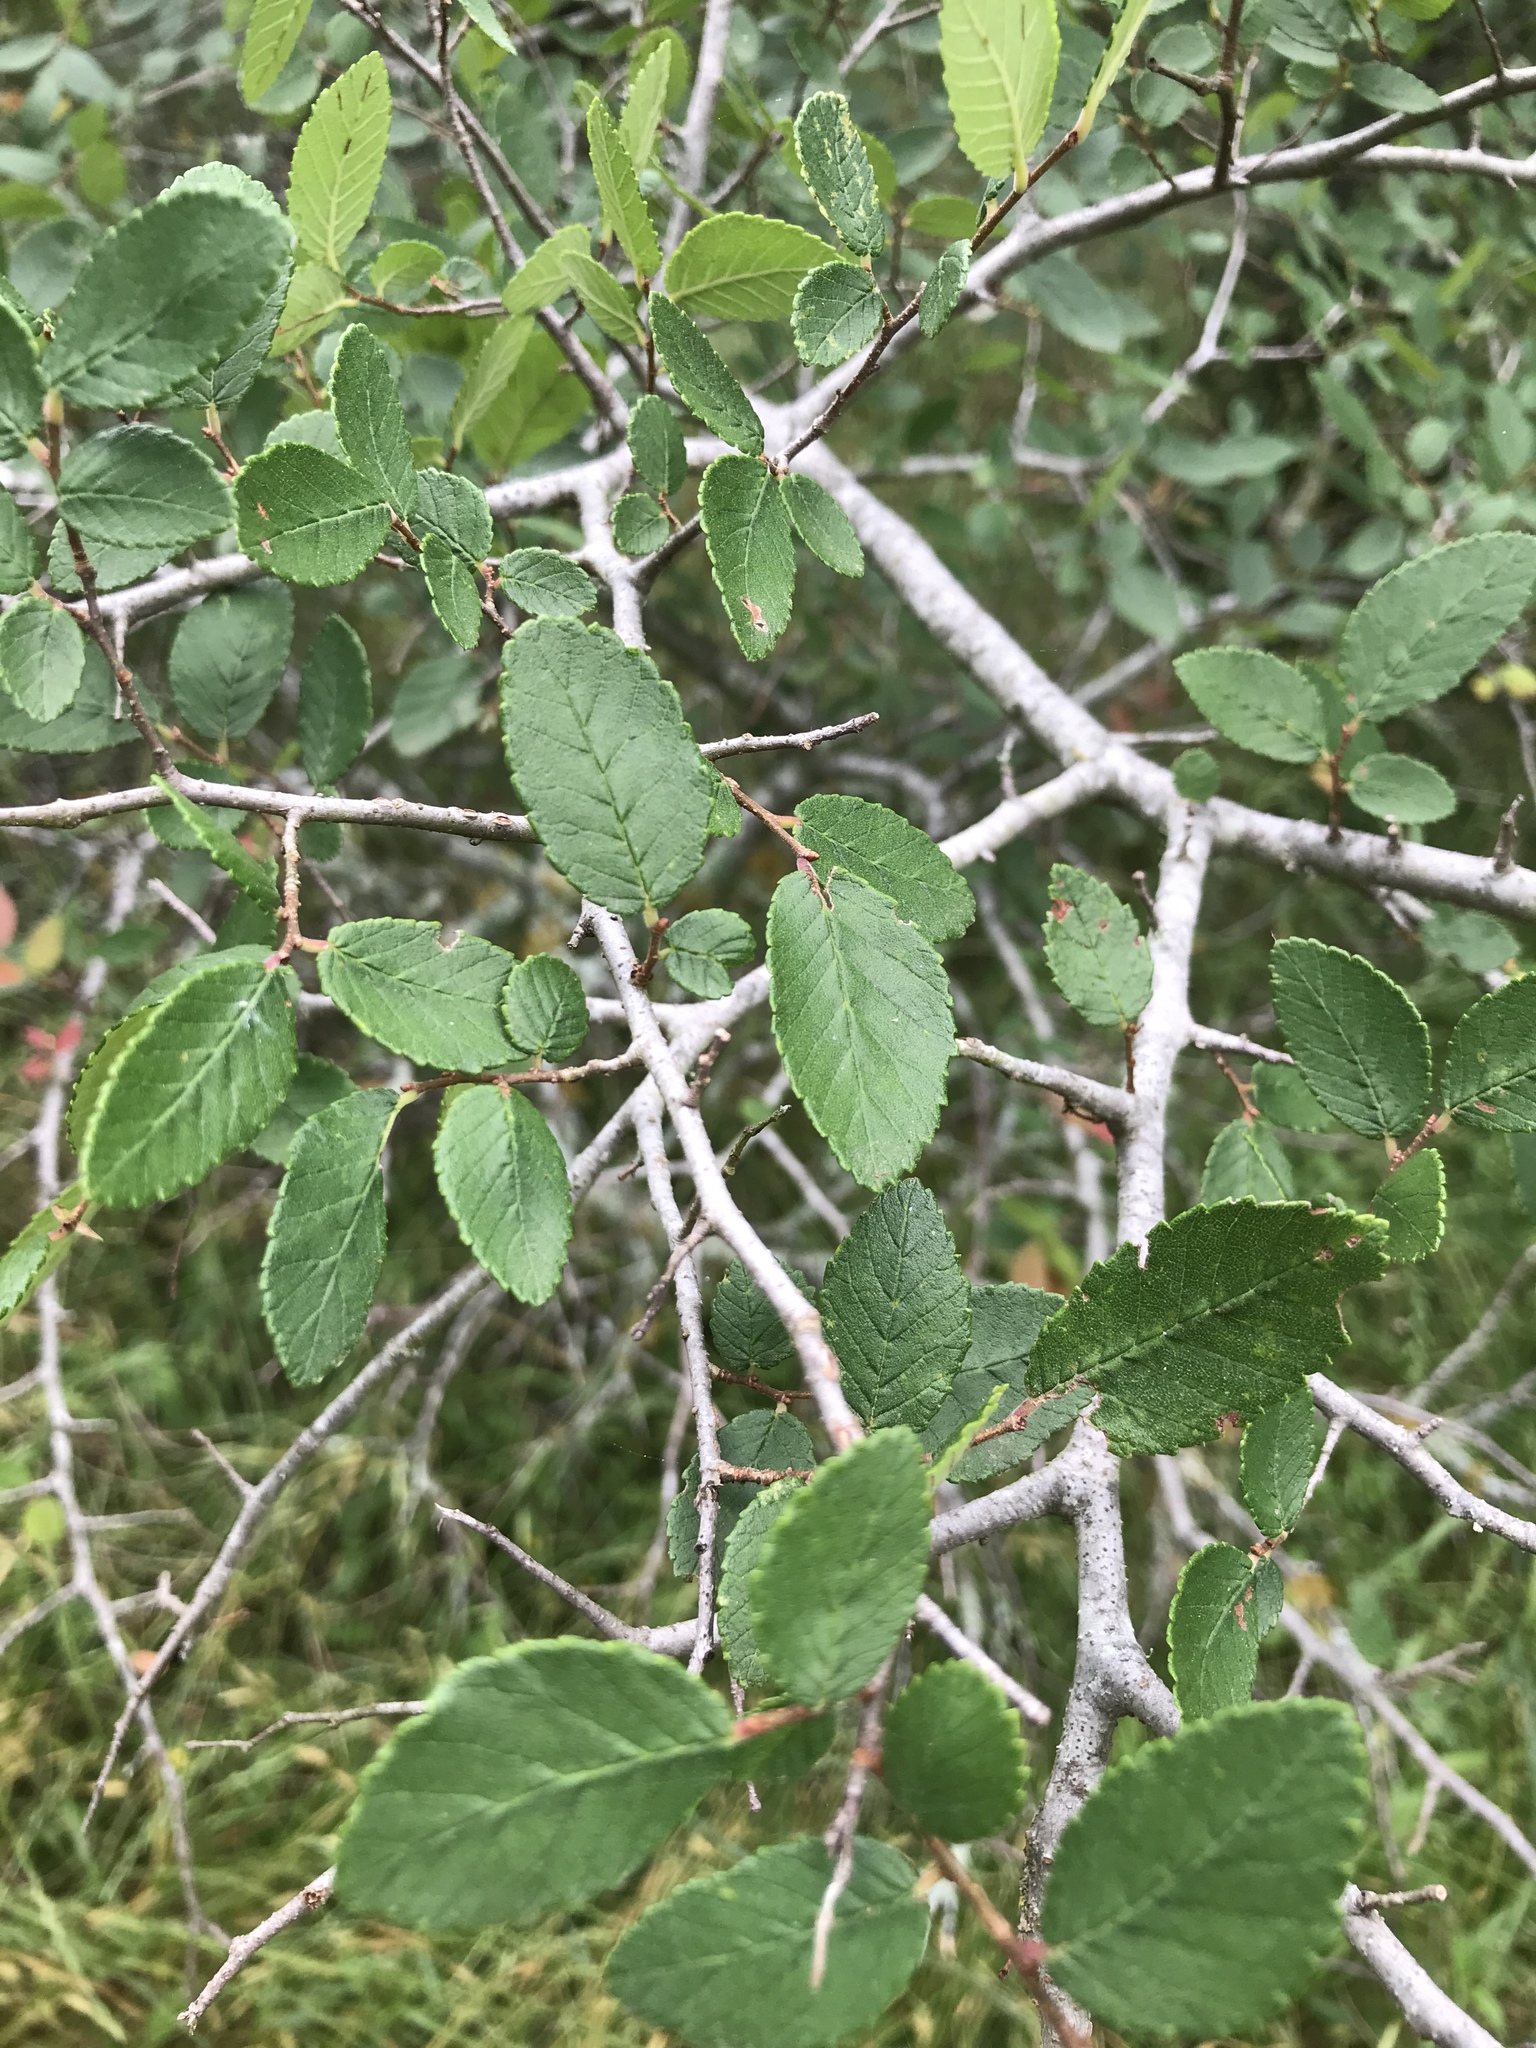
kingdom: Plantae
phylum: Tracheophyta
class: Magnoliopsida
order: Rosales
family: Ulmaceae
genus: Ulmus
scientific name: Ulmus crassifolia
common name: Basket elm
